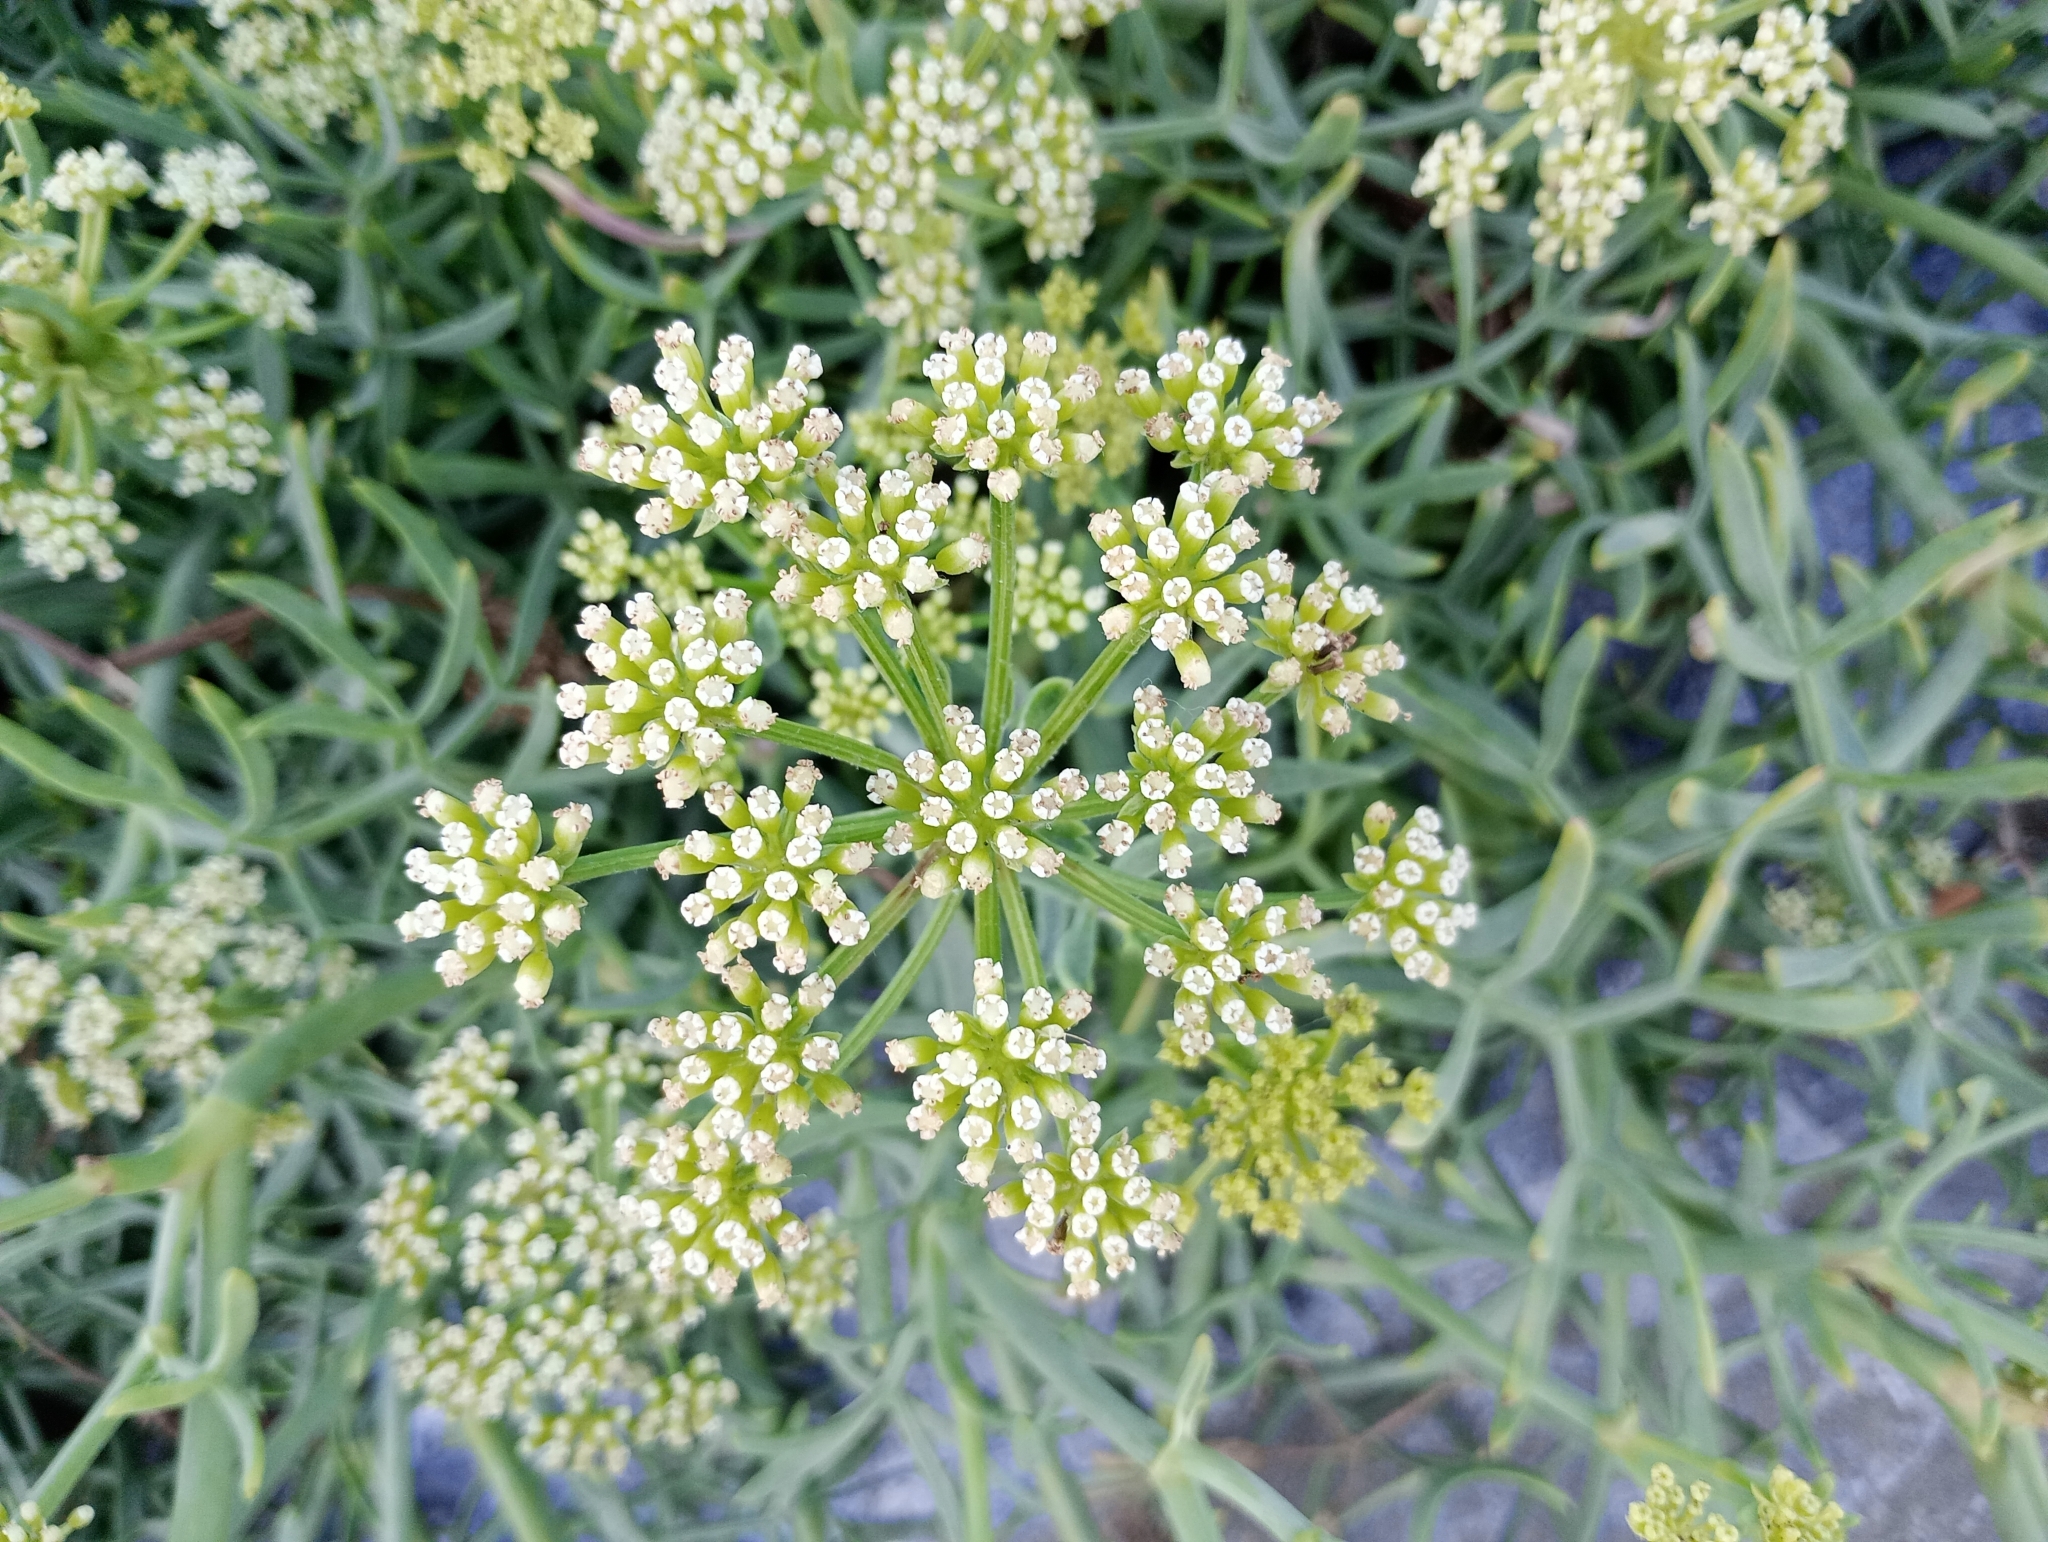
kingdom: Plantae
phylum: Tracheophyta
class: Magnoliopsida
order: Apiales
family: Apiaceae
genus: Crithmum
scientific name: Crithmum maritimum
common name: Rock samphire
